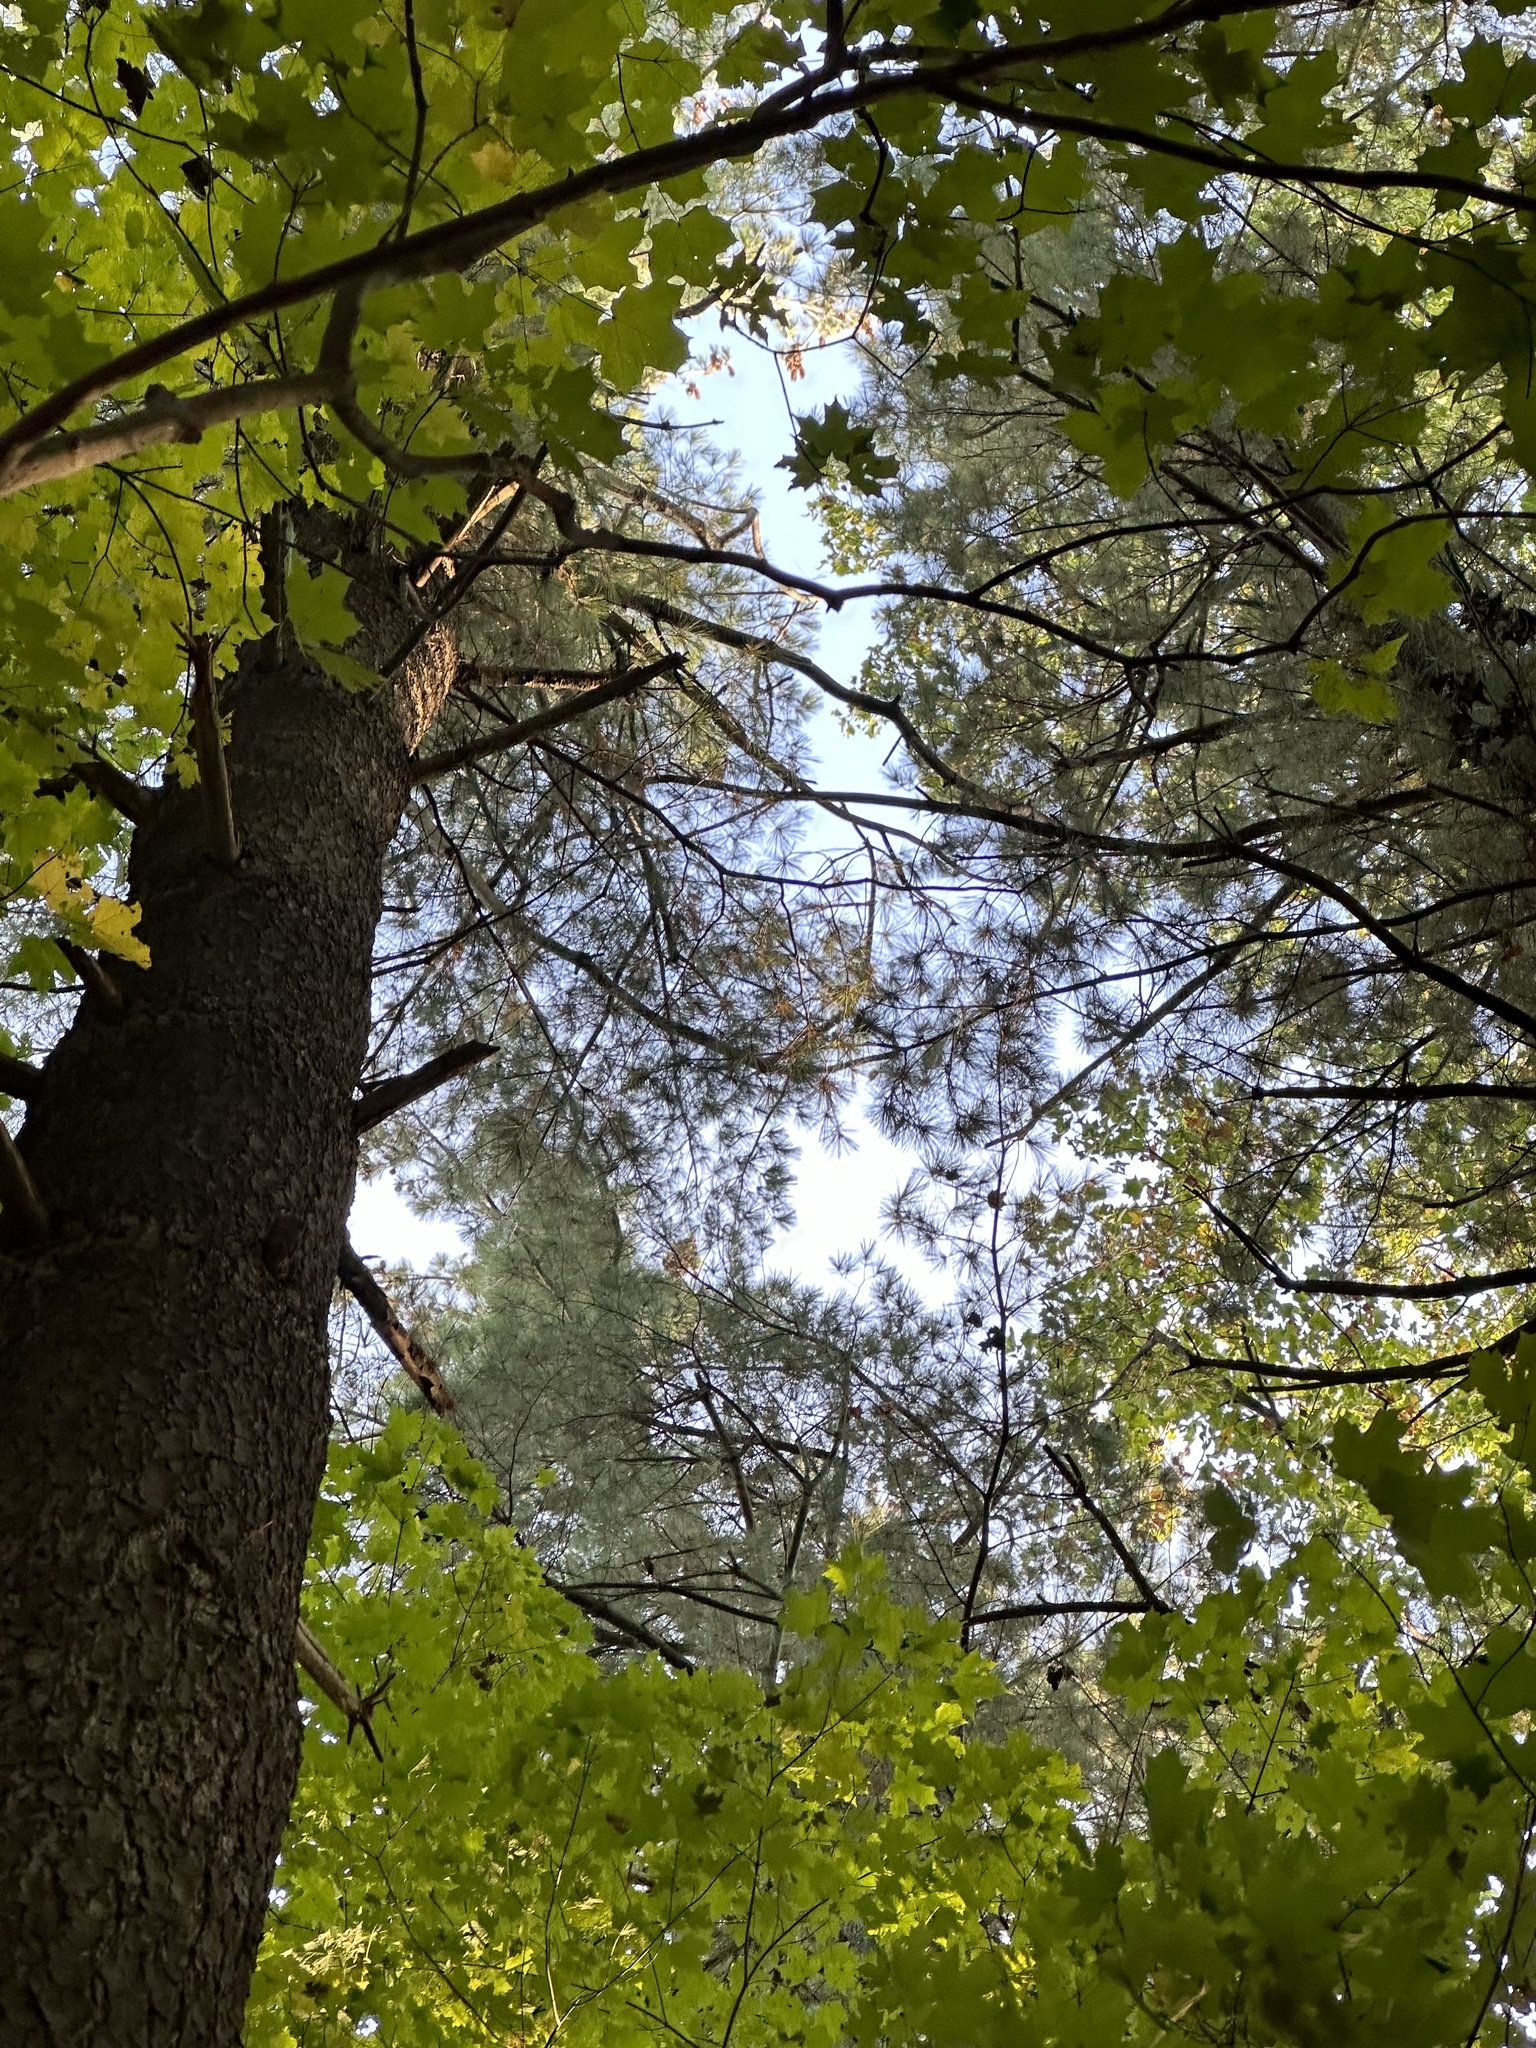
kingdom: Plantae
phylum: Tracheophyta
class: Pinopsida
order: Pinales
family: Pinaceae
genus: Pinus
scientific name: Pinus strobus
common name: Weymouth pine
